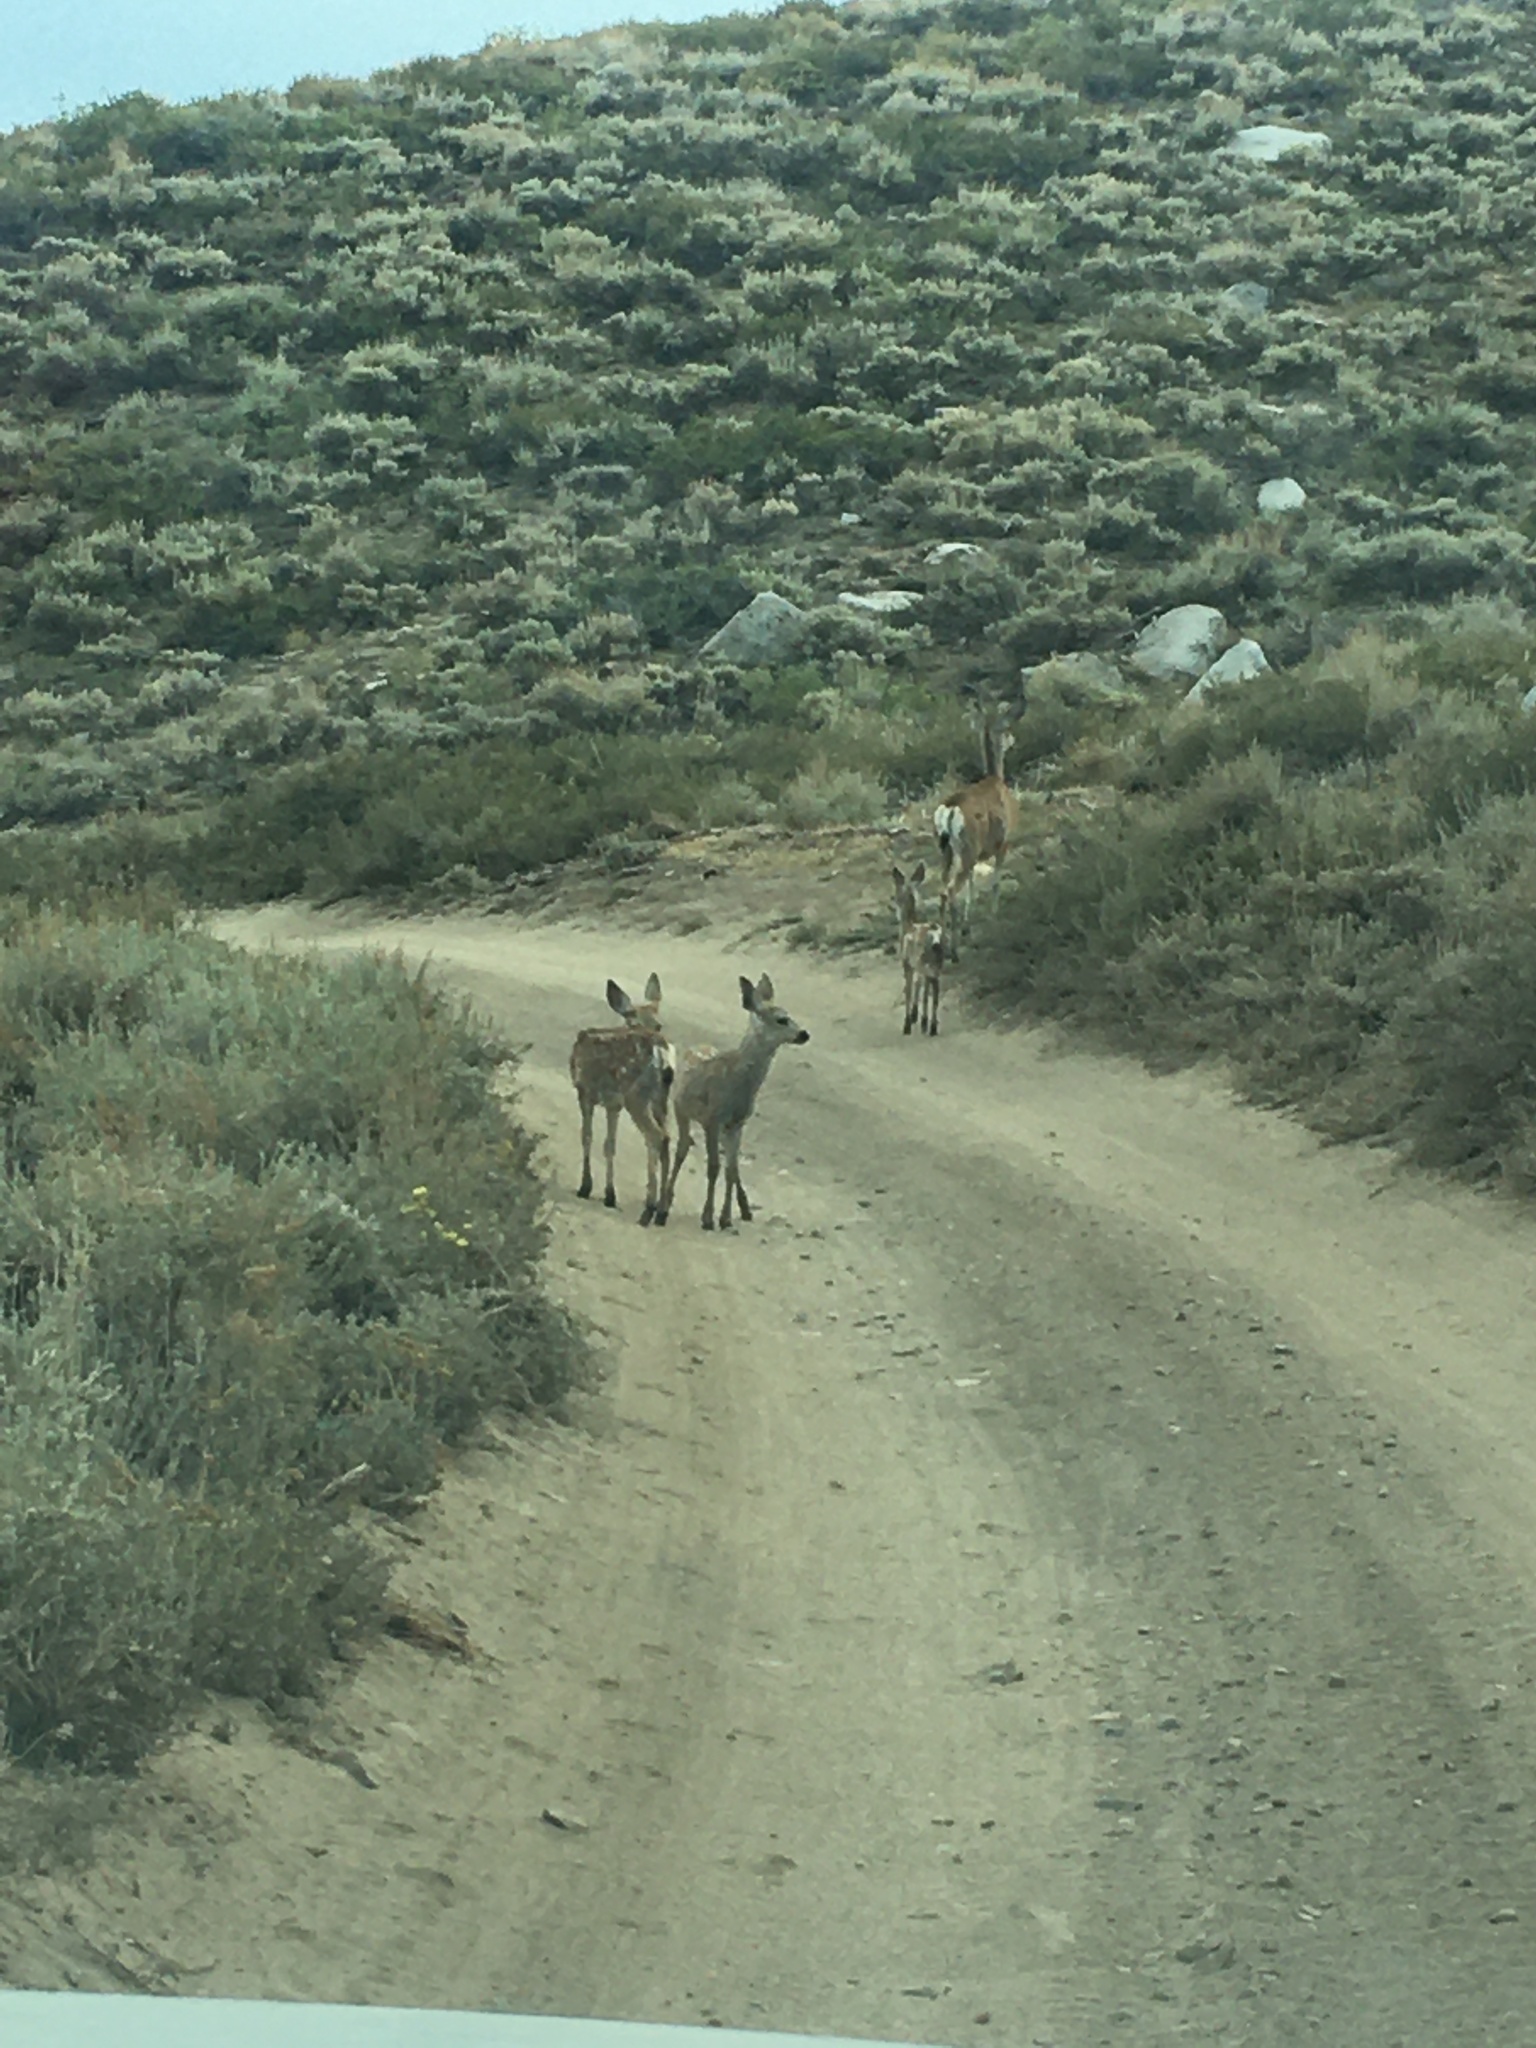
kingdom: Animalia
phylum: Chordata
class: Mammalia
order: Artiodactyla
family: Cervidae
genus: Odocoileus
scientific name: Odocoileus hemionus
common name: Mule deer
